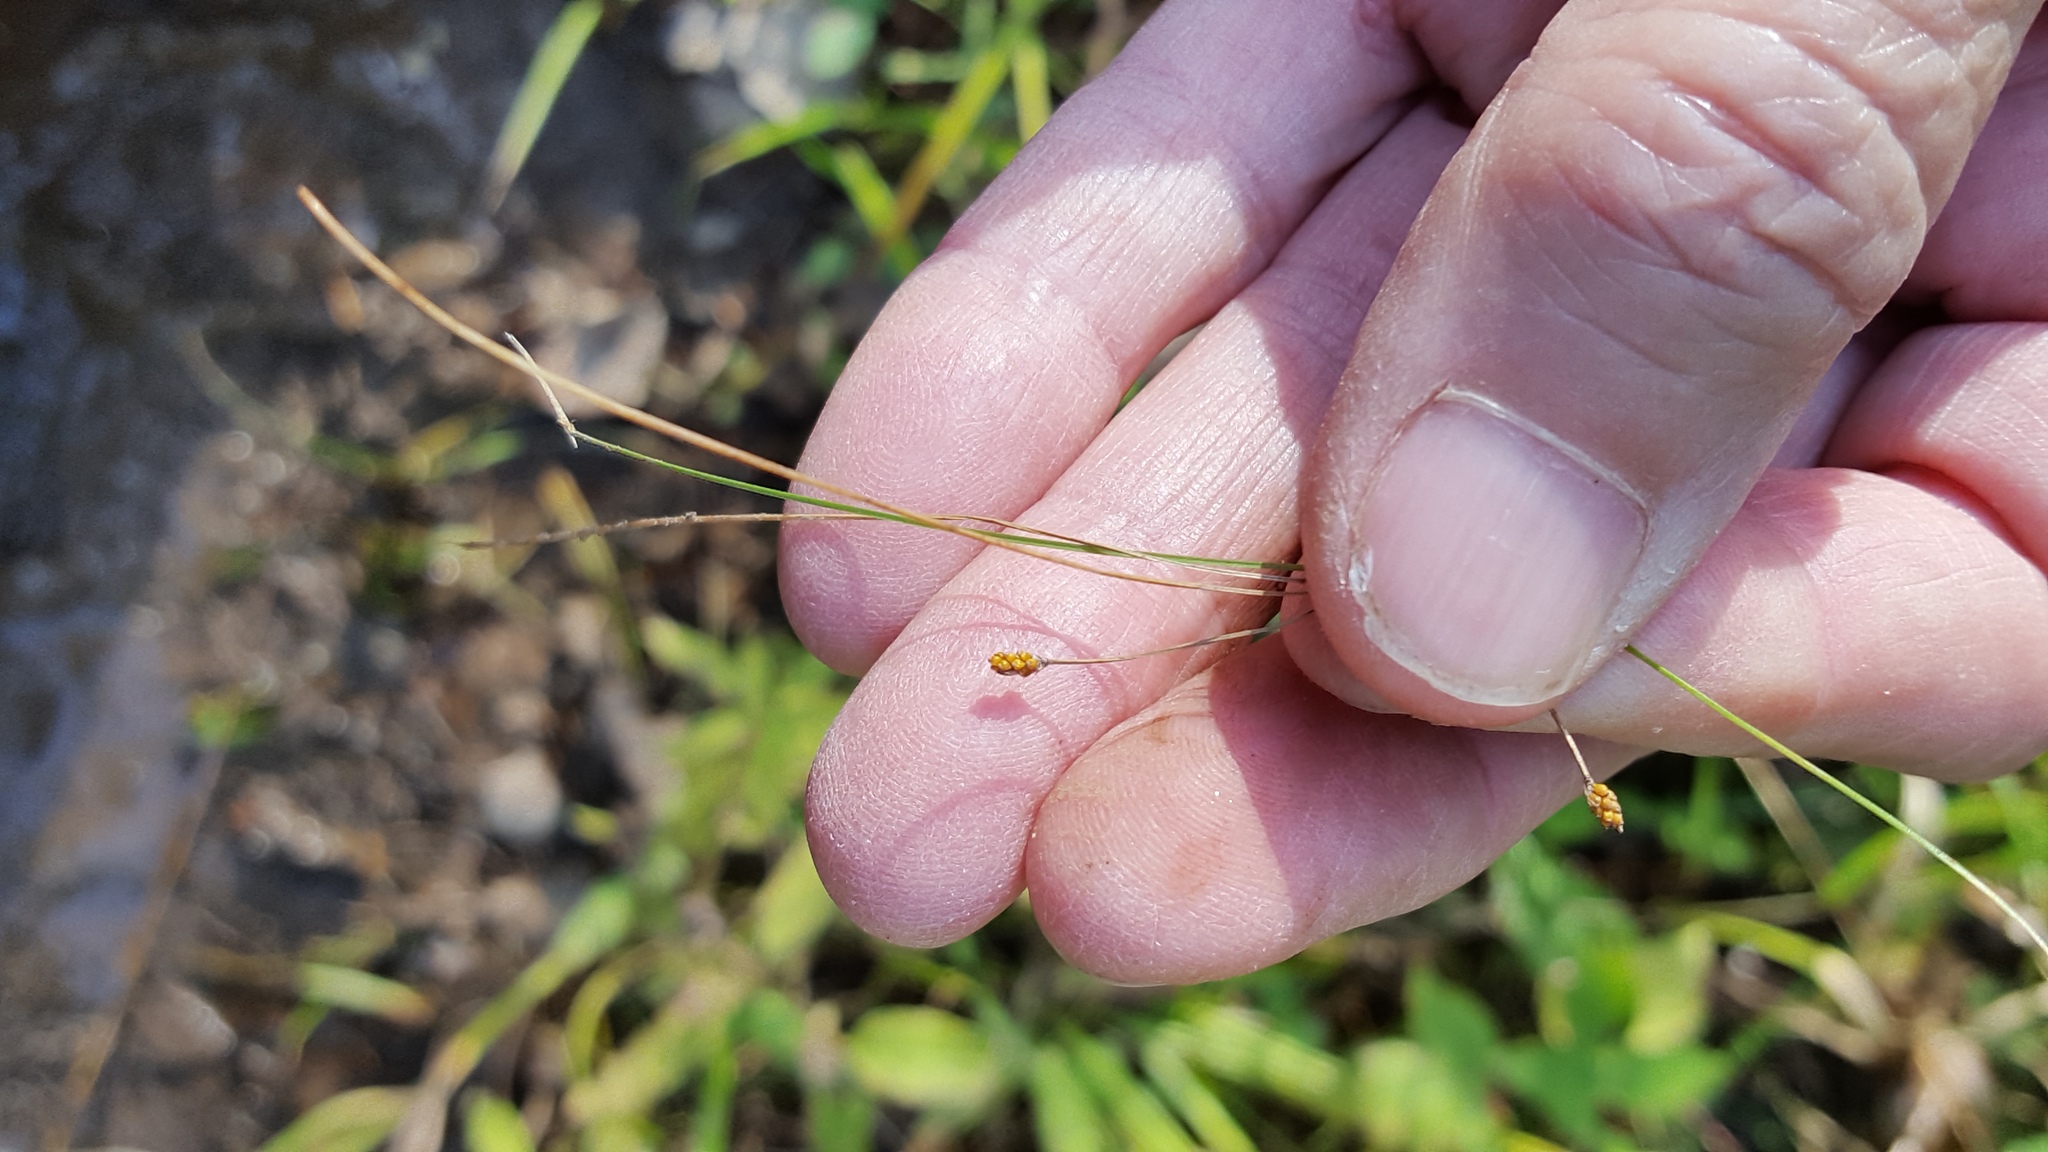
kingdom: Plantae
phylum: Tracheophyta
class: Liliopsida
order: Poales
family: Cyperaceae
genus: Eleocharis
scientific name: Eleocharis nitida
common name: Neat spikerush
